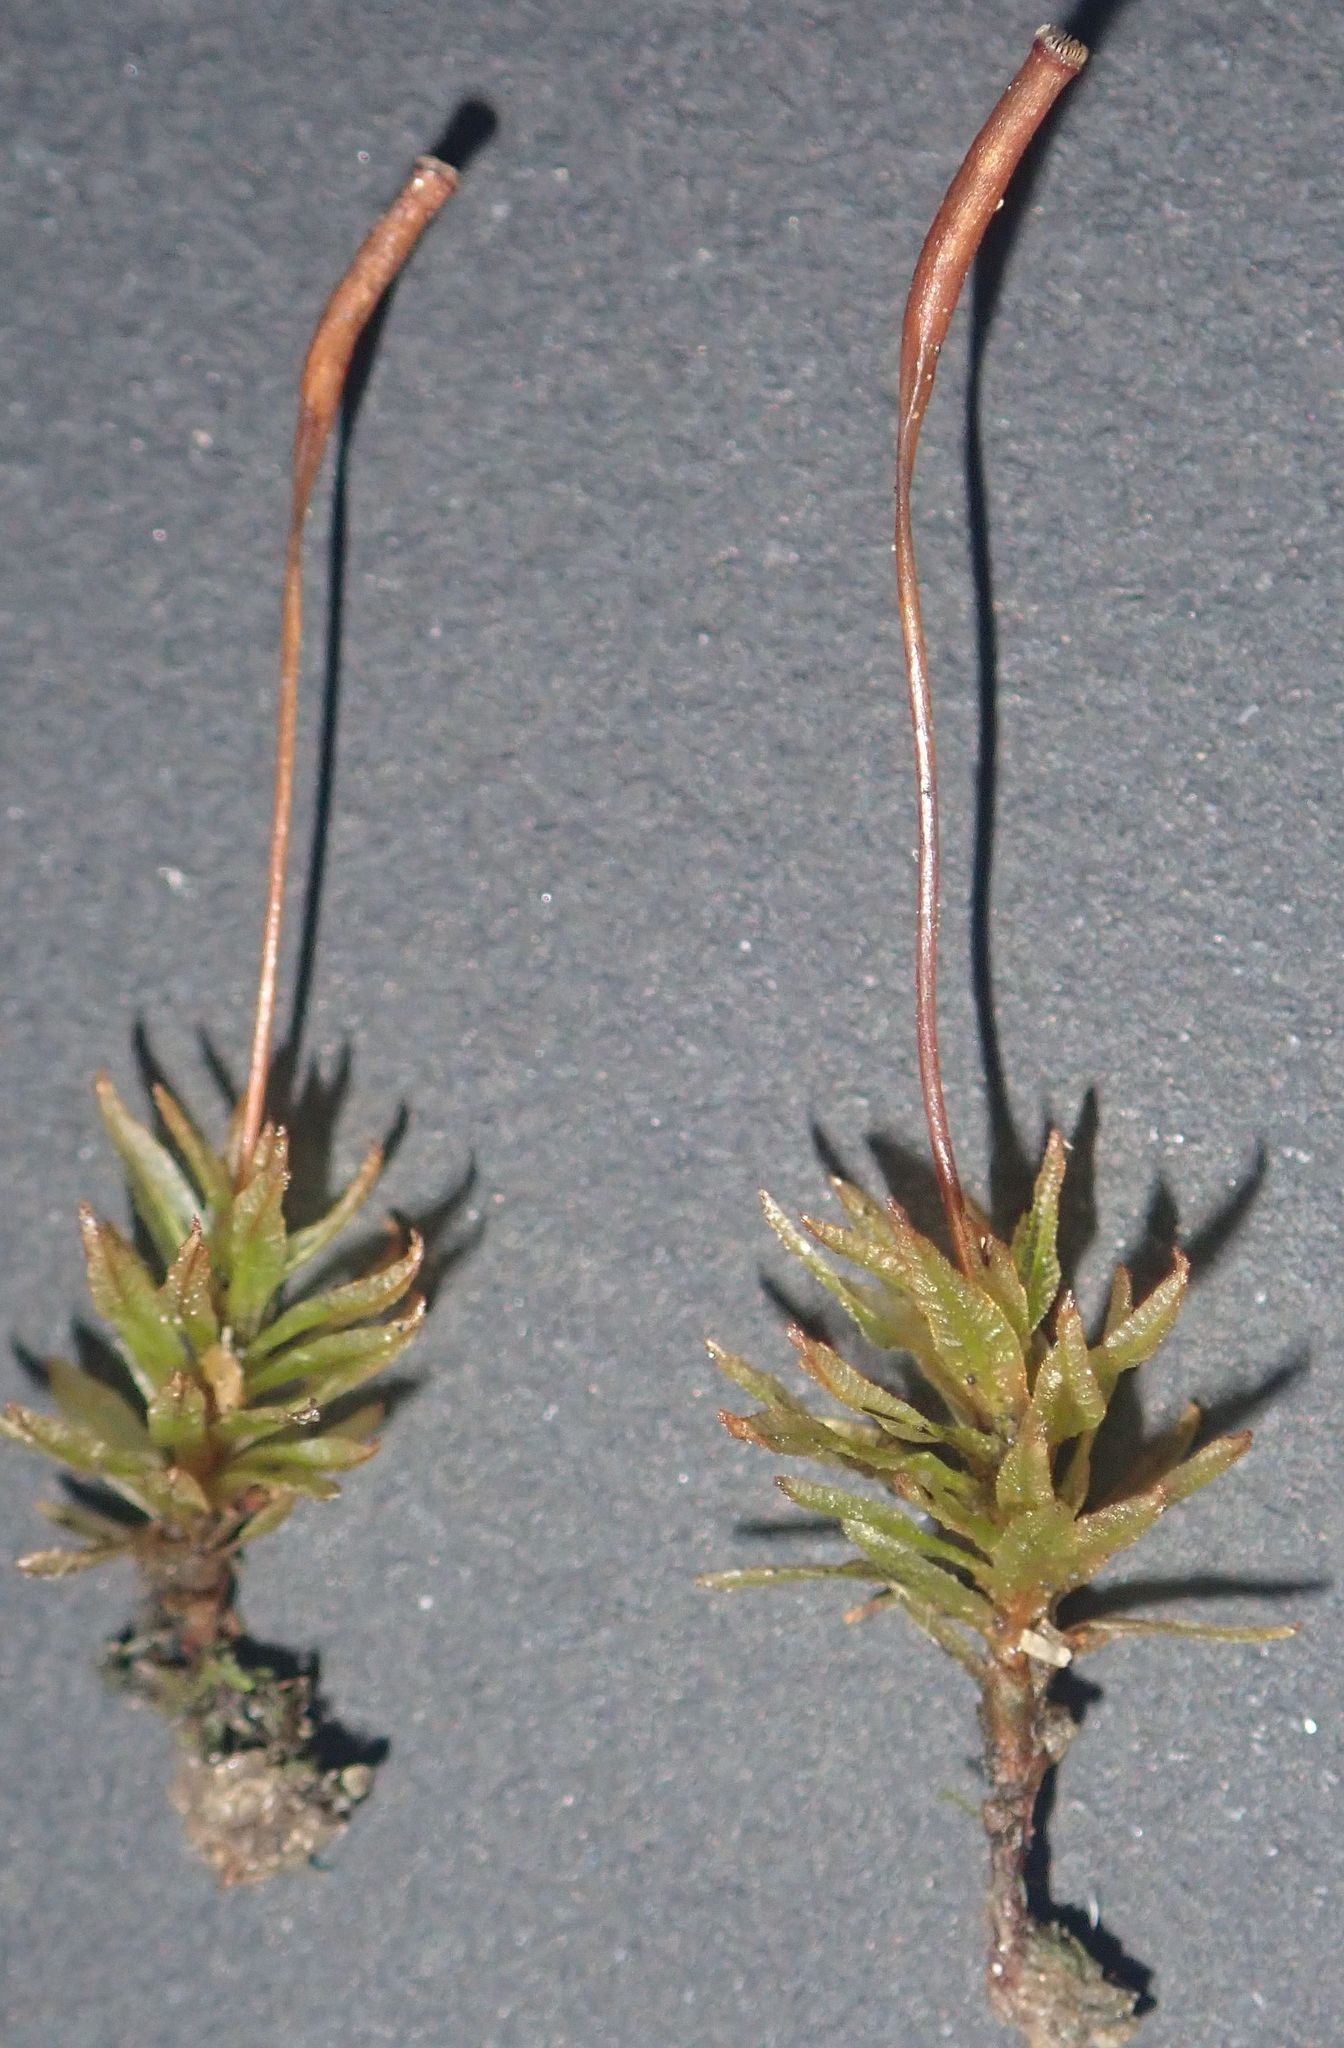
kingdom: Plantae
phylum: Bryophyta
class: Polytrichopsida
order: Polytrichales
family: Polytrichaceae
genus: Atrichum
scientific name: Atrichum androgynum
